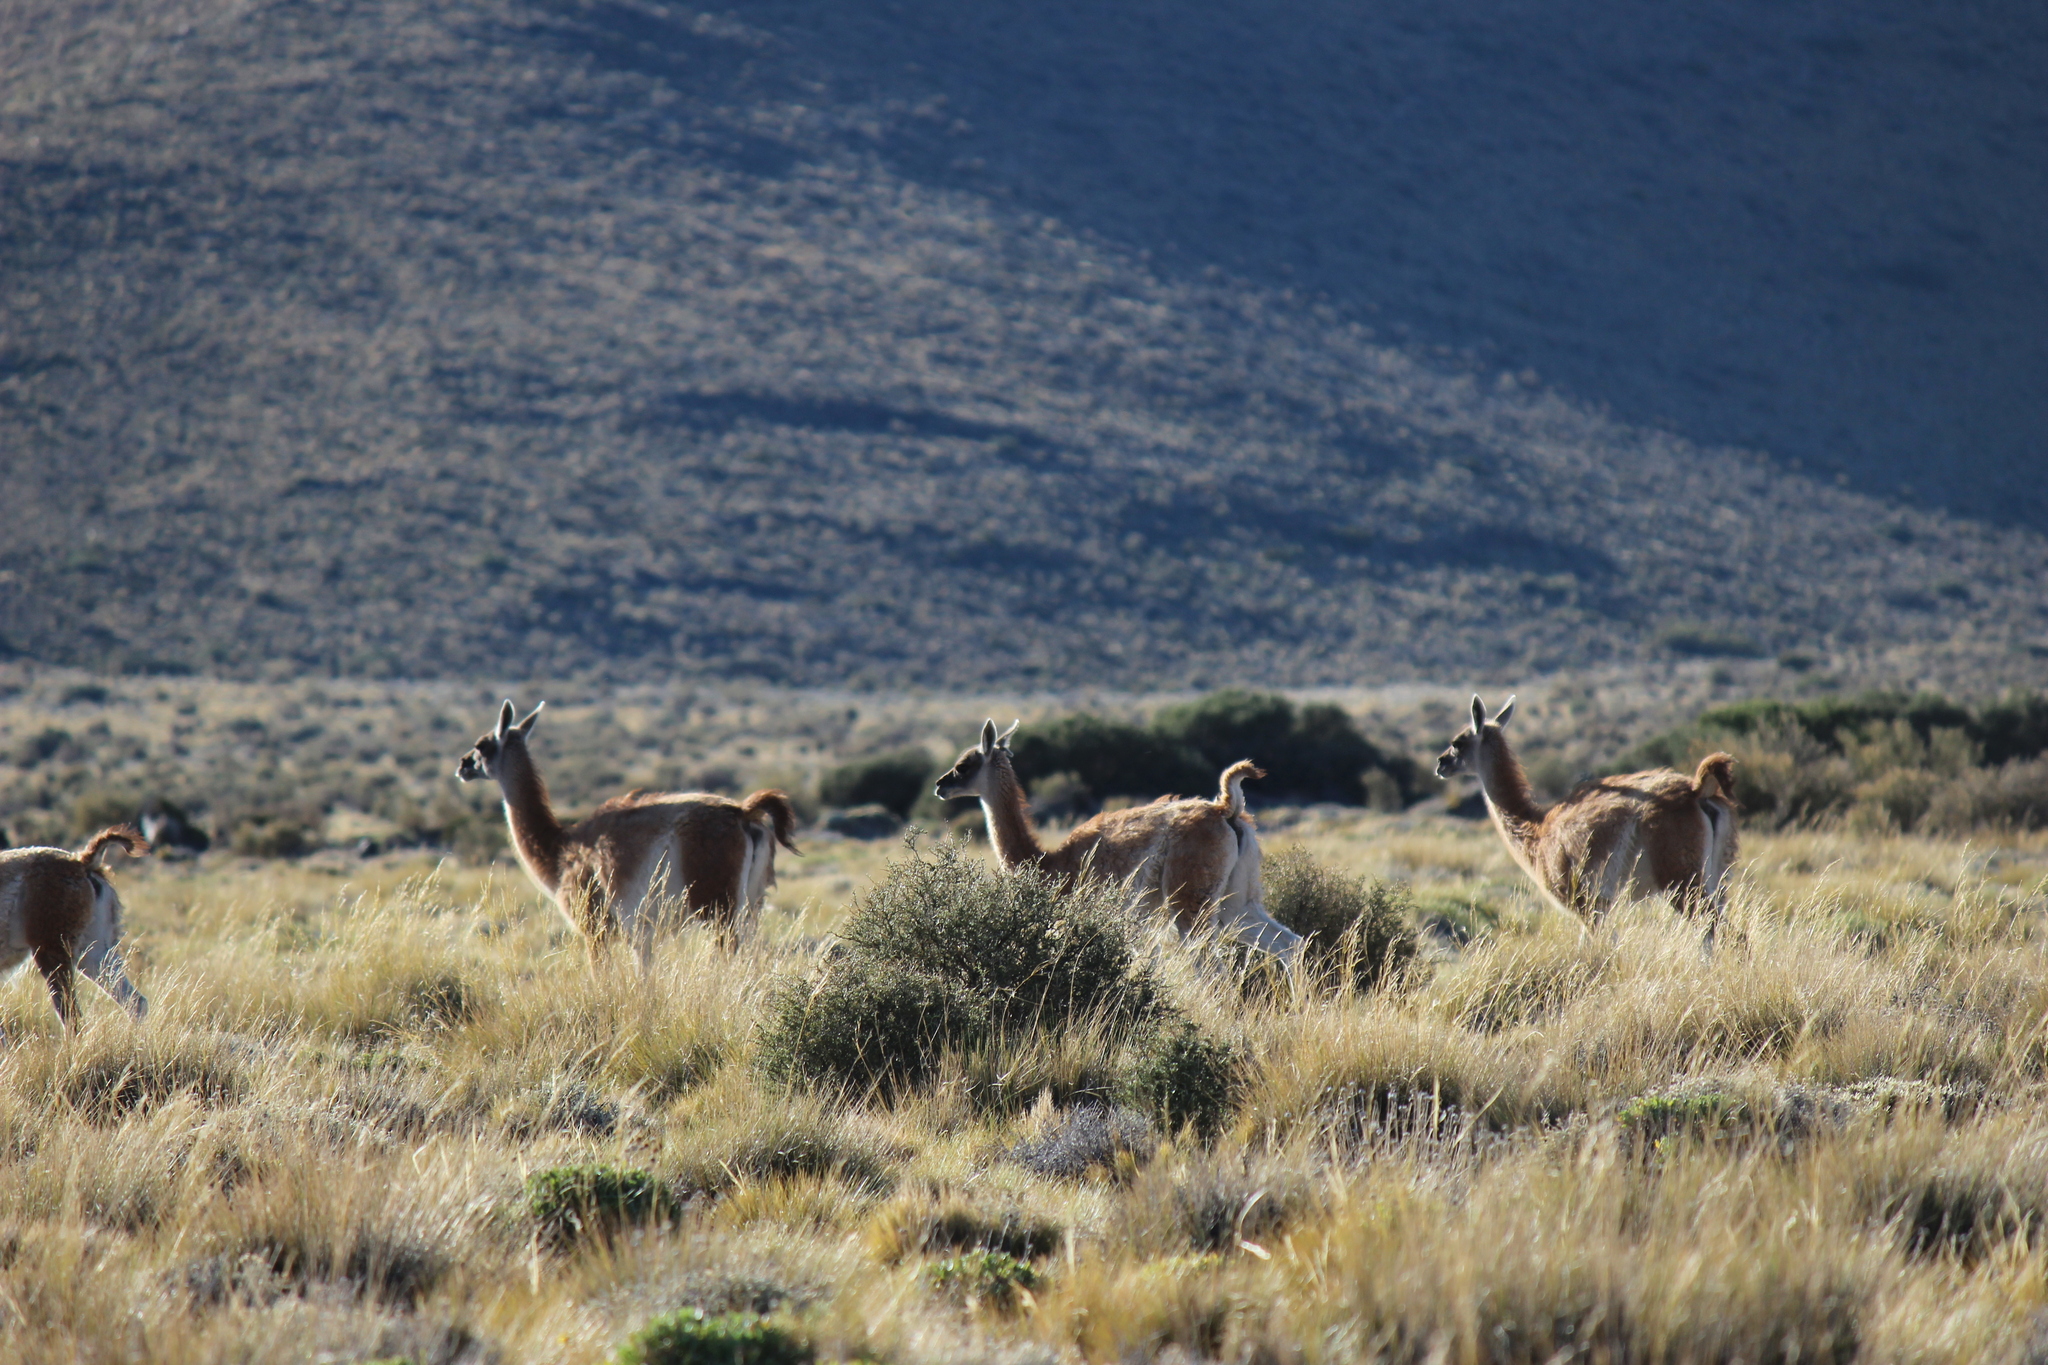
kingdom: Animalia
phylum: Chordata
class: Mammalia
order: Artiodactyla
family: Camelidae
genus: Lama
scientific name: Lama glama
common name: Llama
